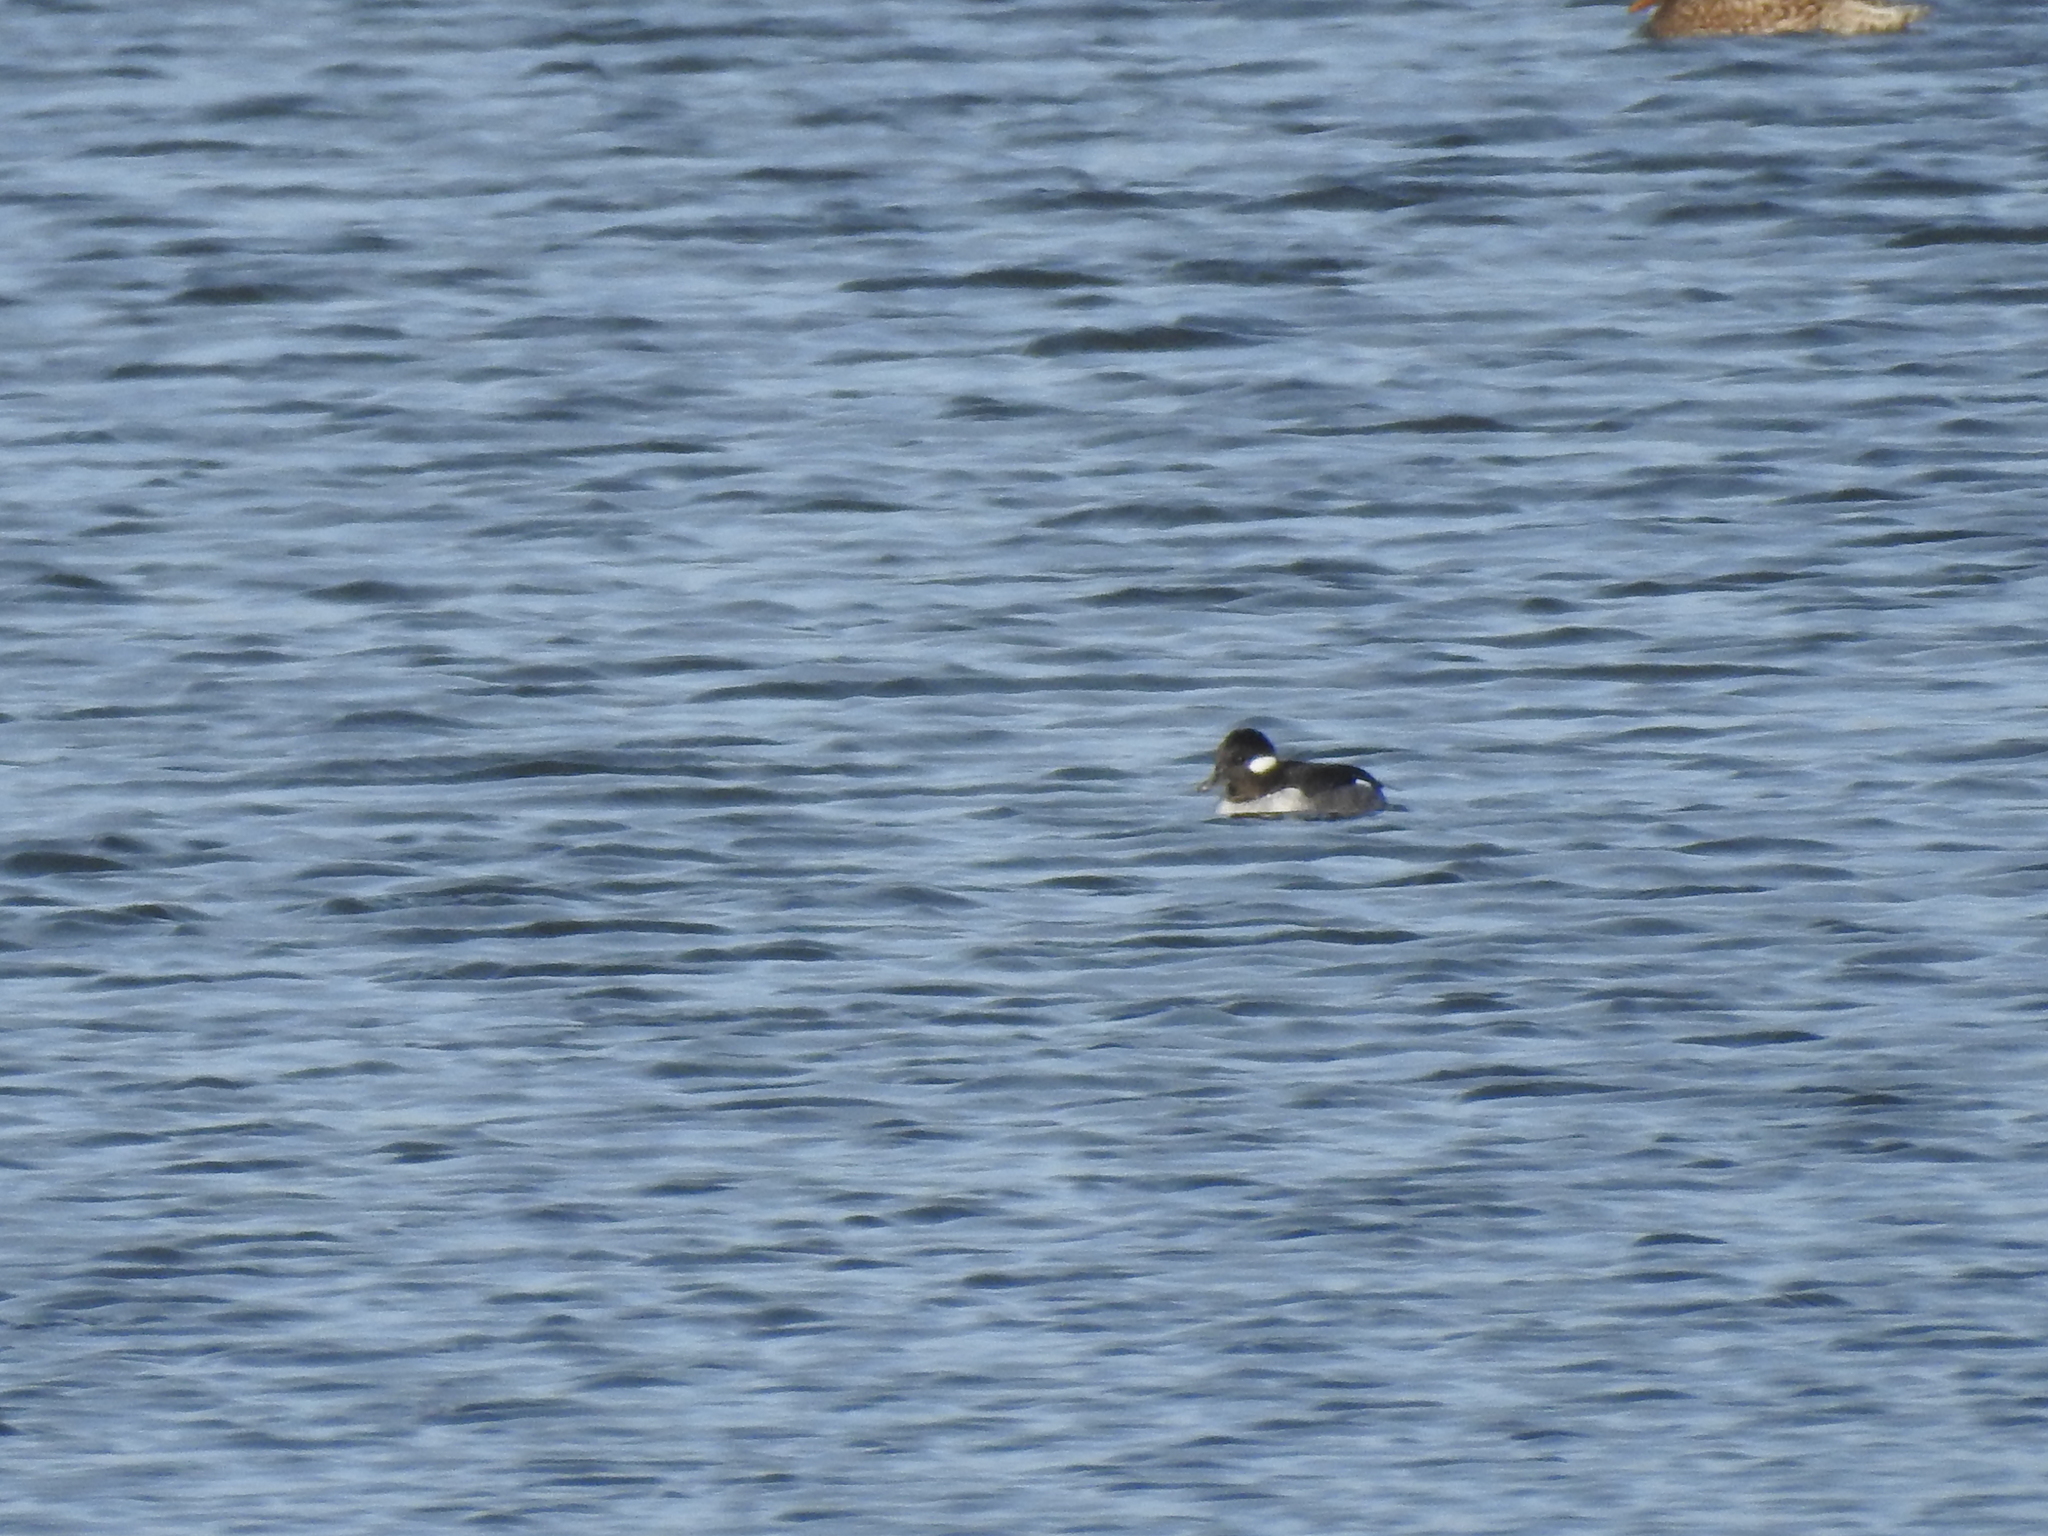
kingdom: Animalia
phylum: Chordata
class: Aves
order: Anseriformes
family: Anatidae
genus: Bucephala
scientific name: Bucephala albeola
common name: Bufflehead
